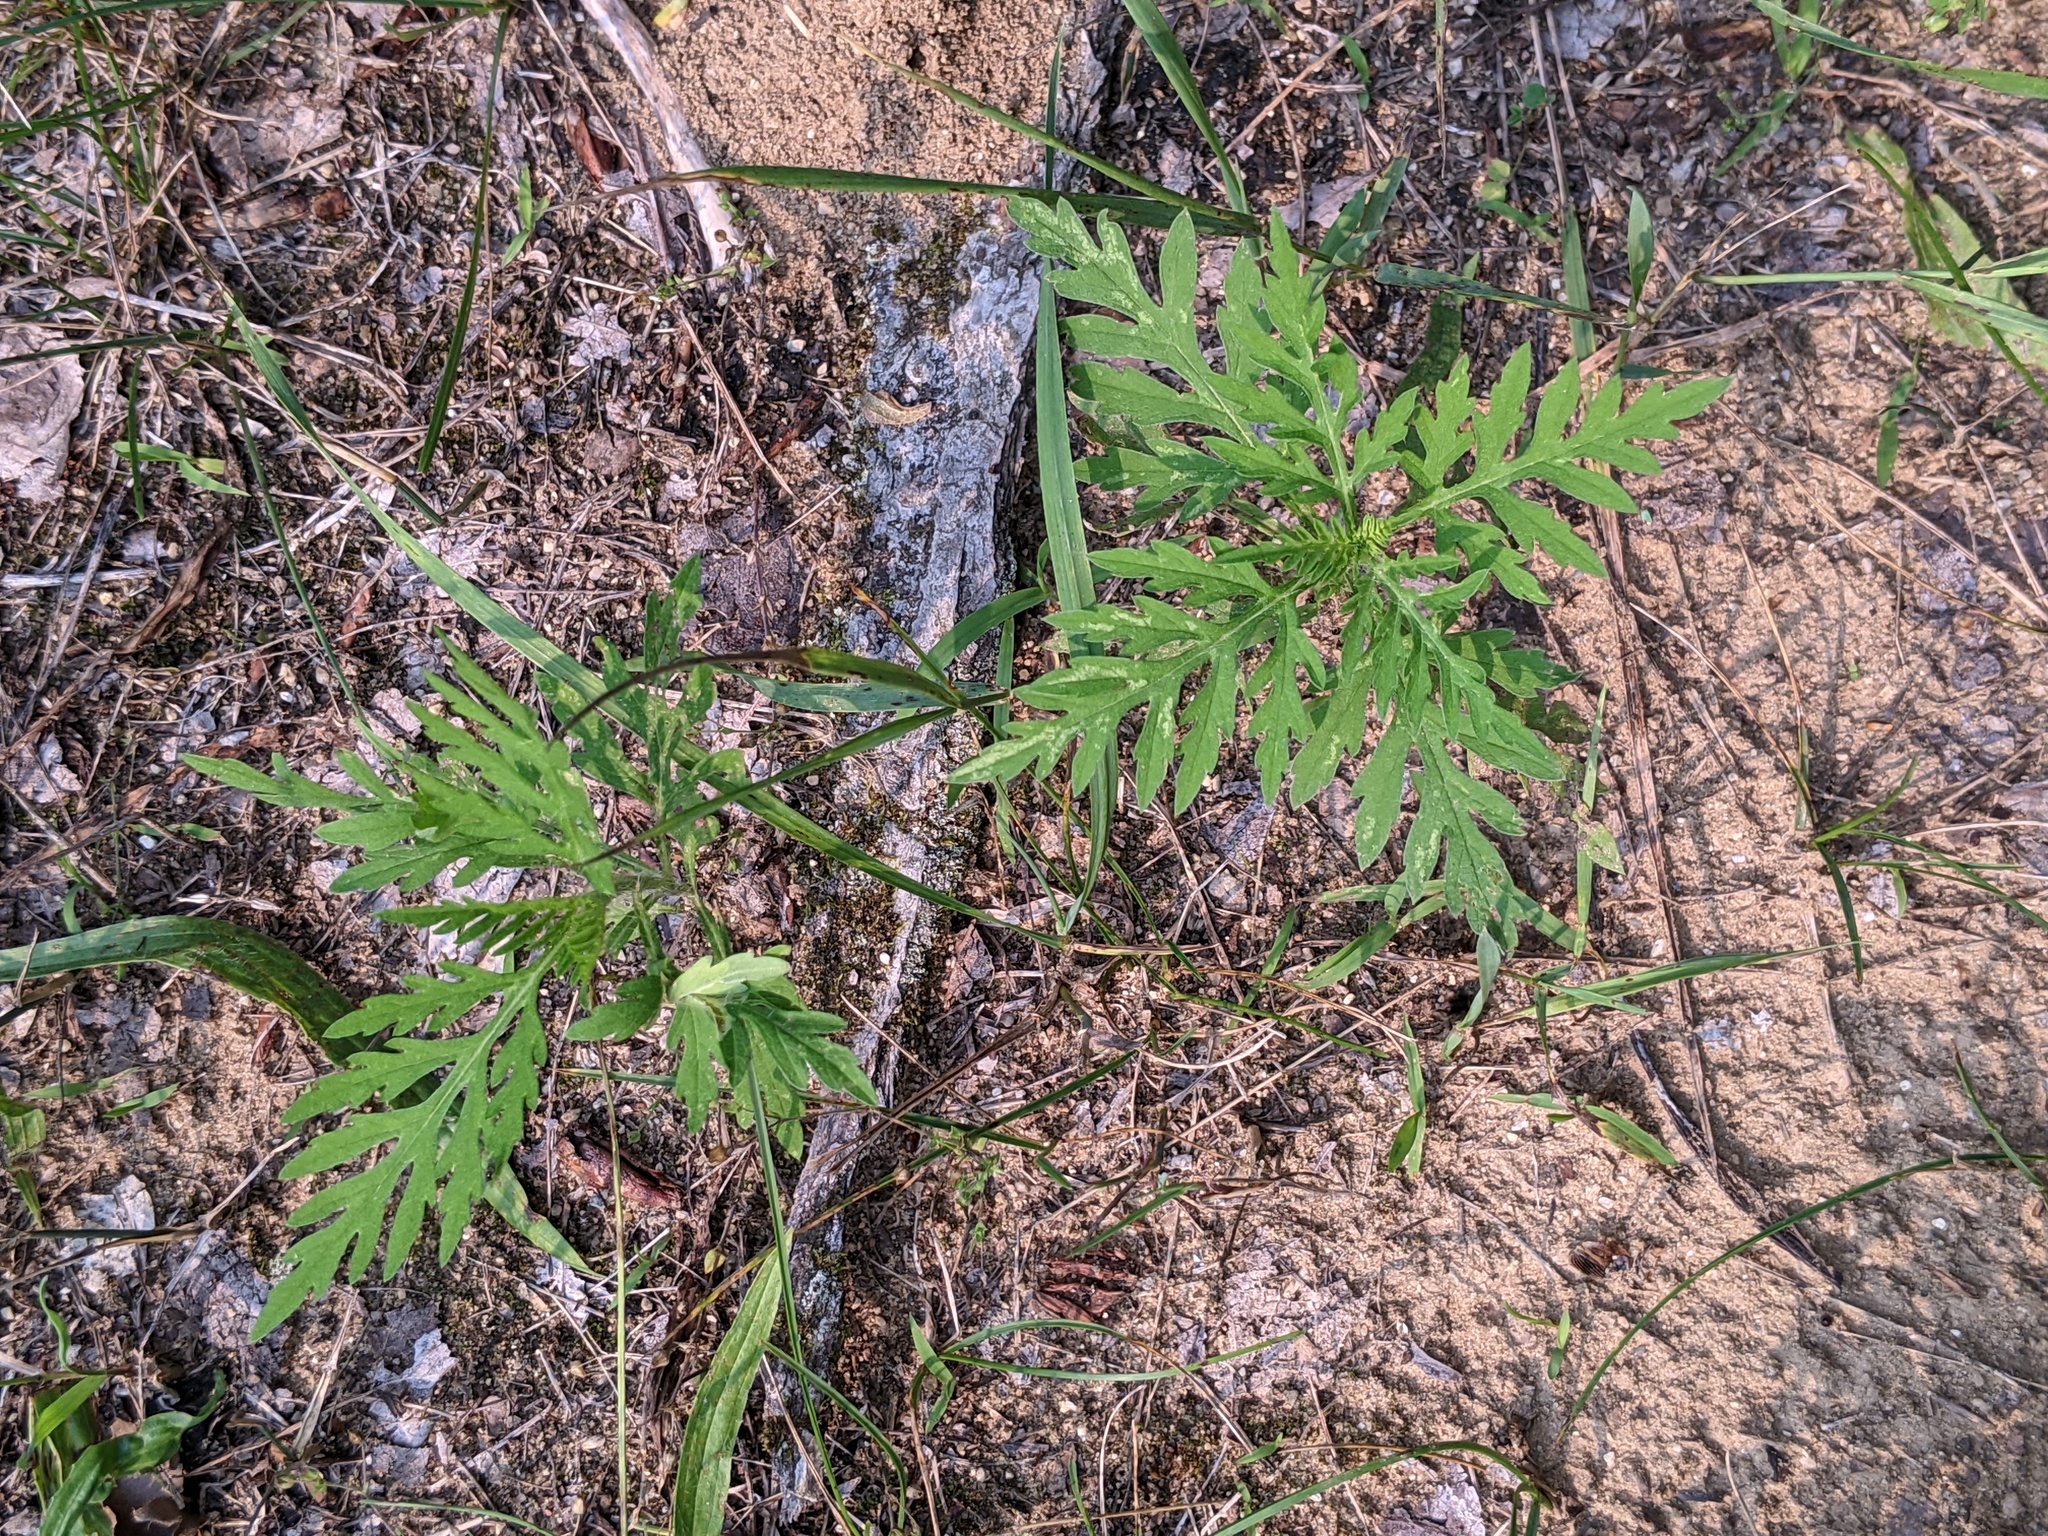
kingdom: Plantae
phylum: Tracheophyta
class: Magnoliopsida
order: Asterales
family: Asteraceae
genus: Ambrosia
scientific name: Ambrosia artemisiifolia
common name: Annual ragweed
